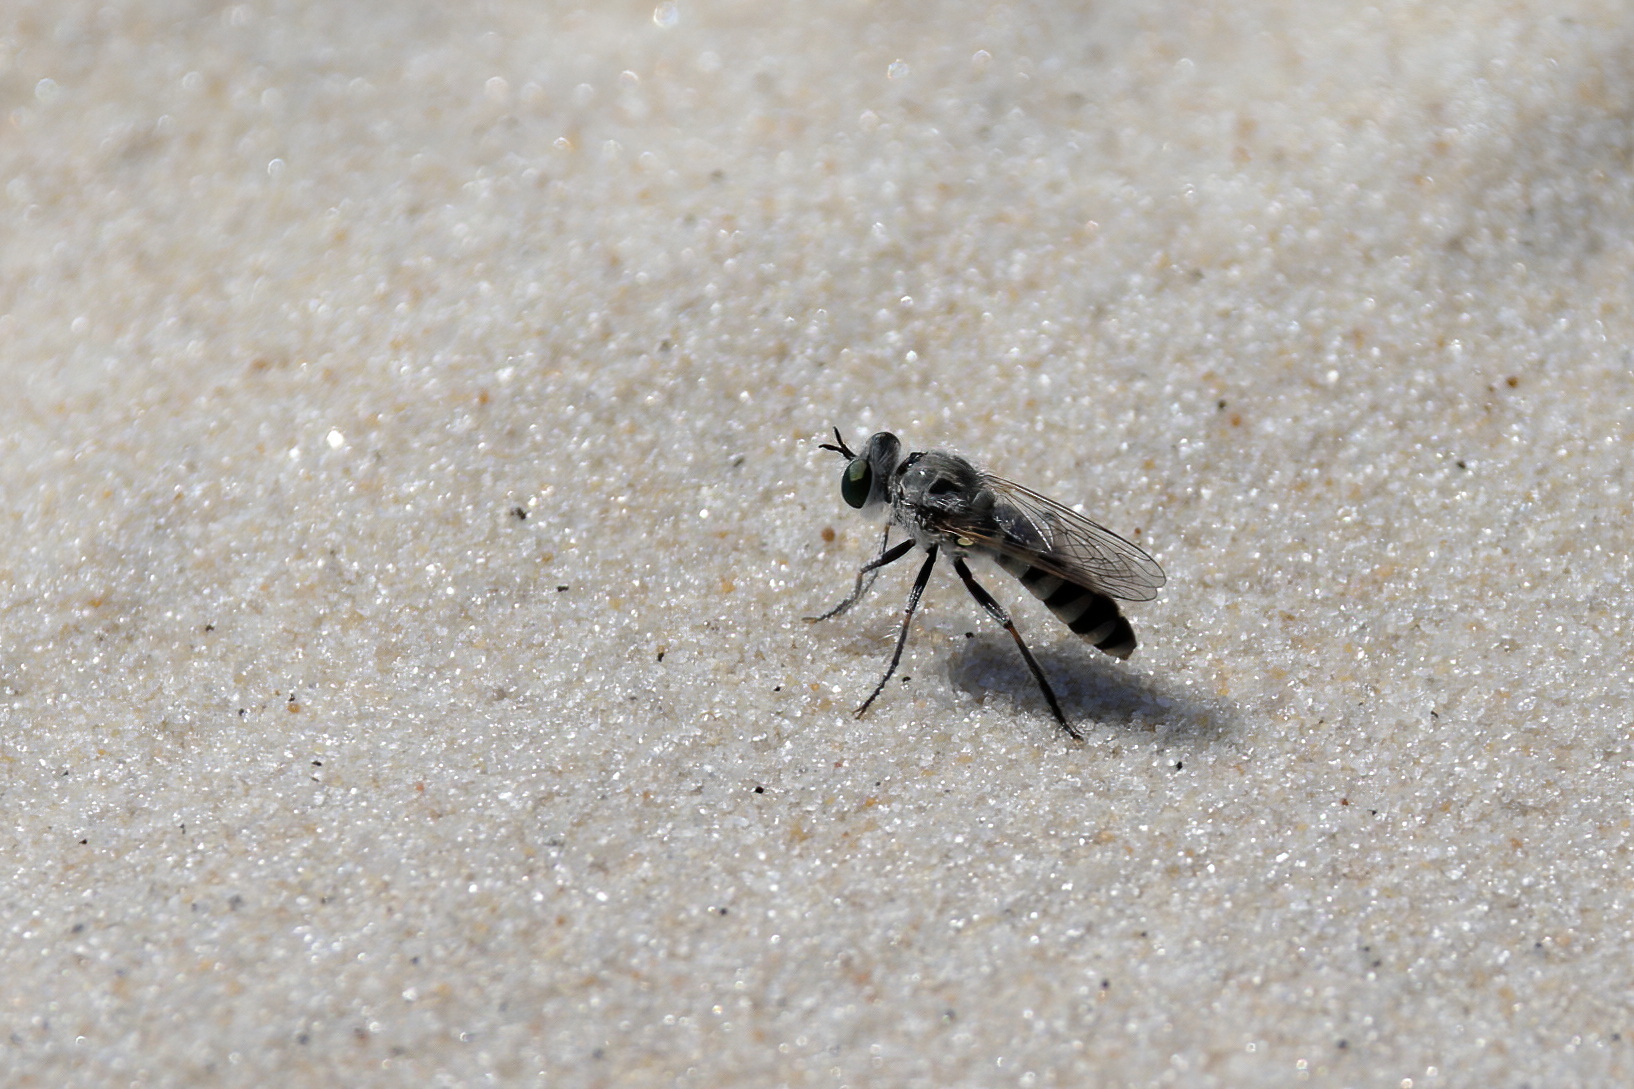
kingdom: Animalia
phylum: Arthropoda
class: Insecta
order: Diptera
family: Asilidae
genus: Laphystia
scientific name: Laphystia texensis
